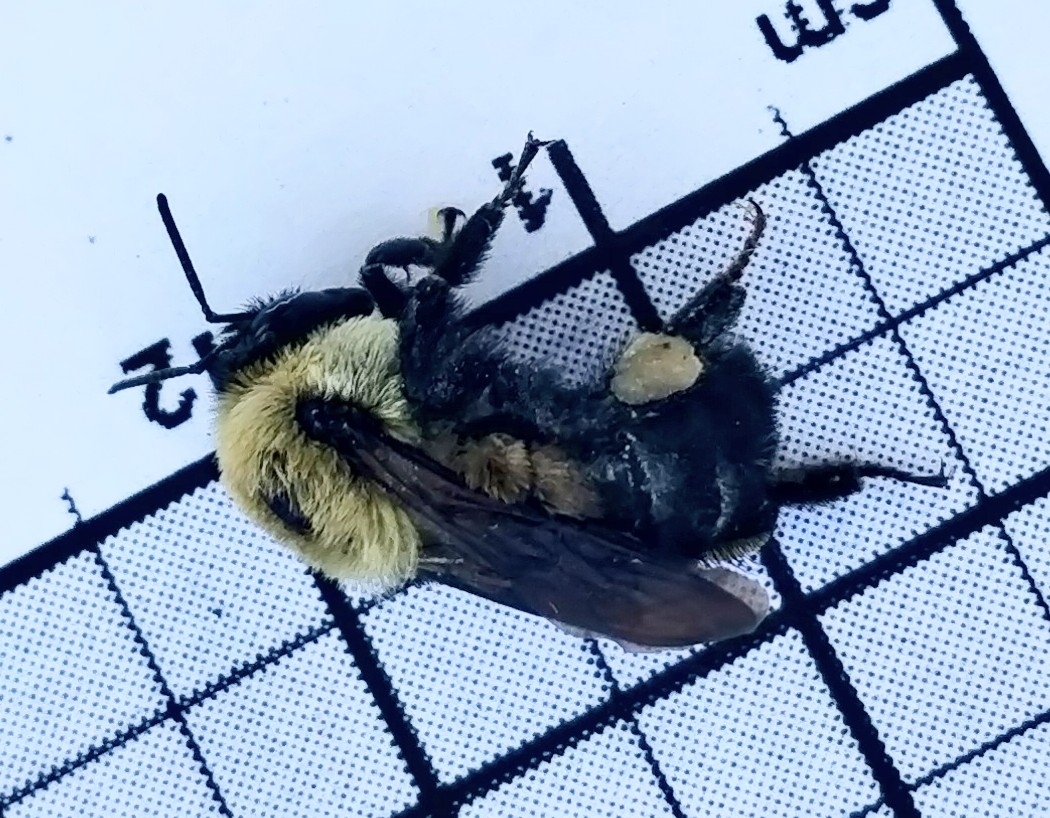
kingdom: Animalia
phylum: Arthropoda
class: Insecta
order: Hymenoptera
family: Apidae
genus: Bombus
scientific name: Bombus griseocollis
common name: Brown-belted bumble bee
